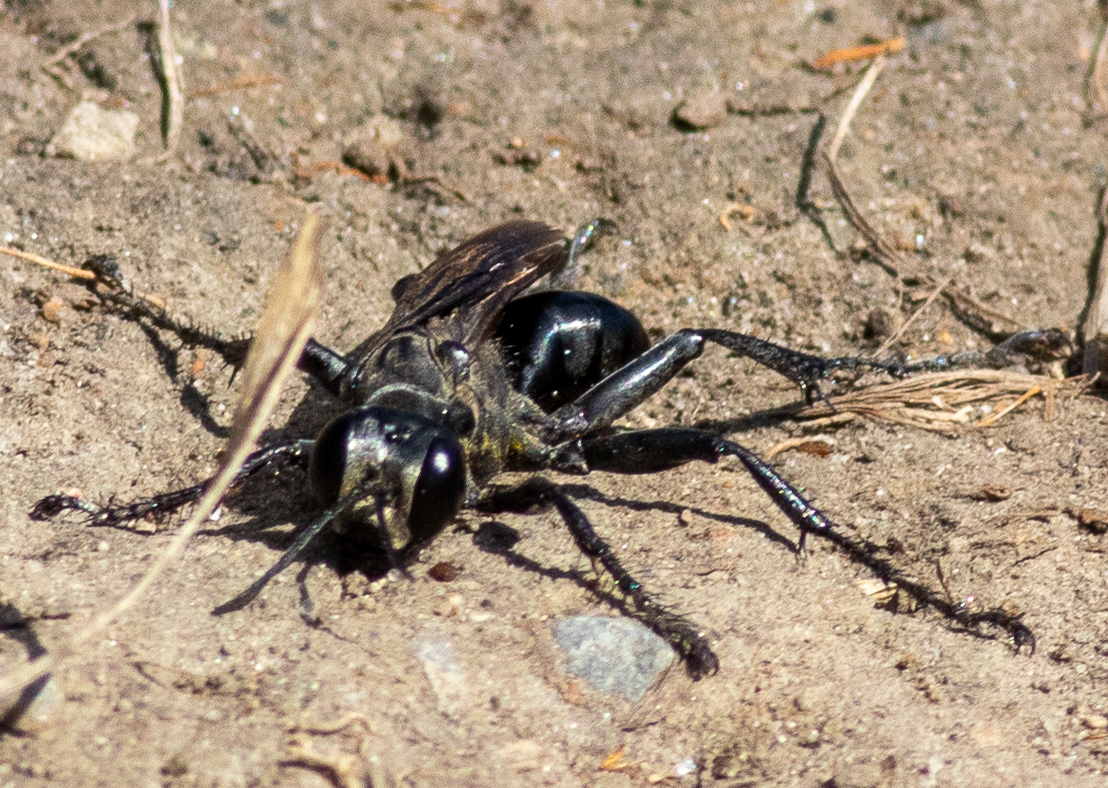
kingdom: Animalia
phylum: Arthropoda
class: Insecta
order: Hymenoptera
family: Sphecidae
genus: Prionyx
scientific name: Prionyx atratus
